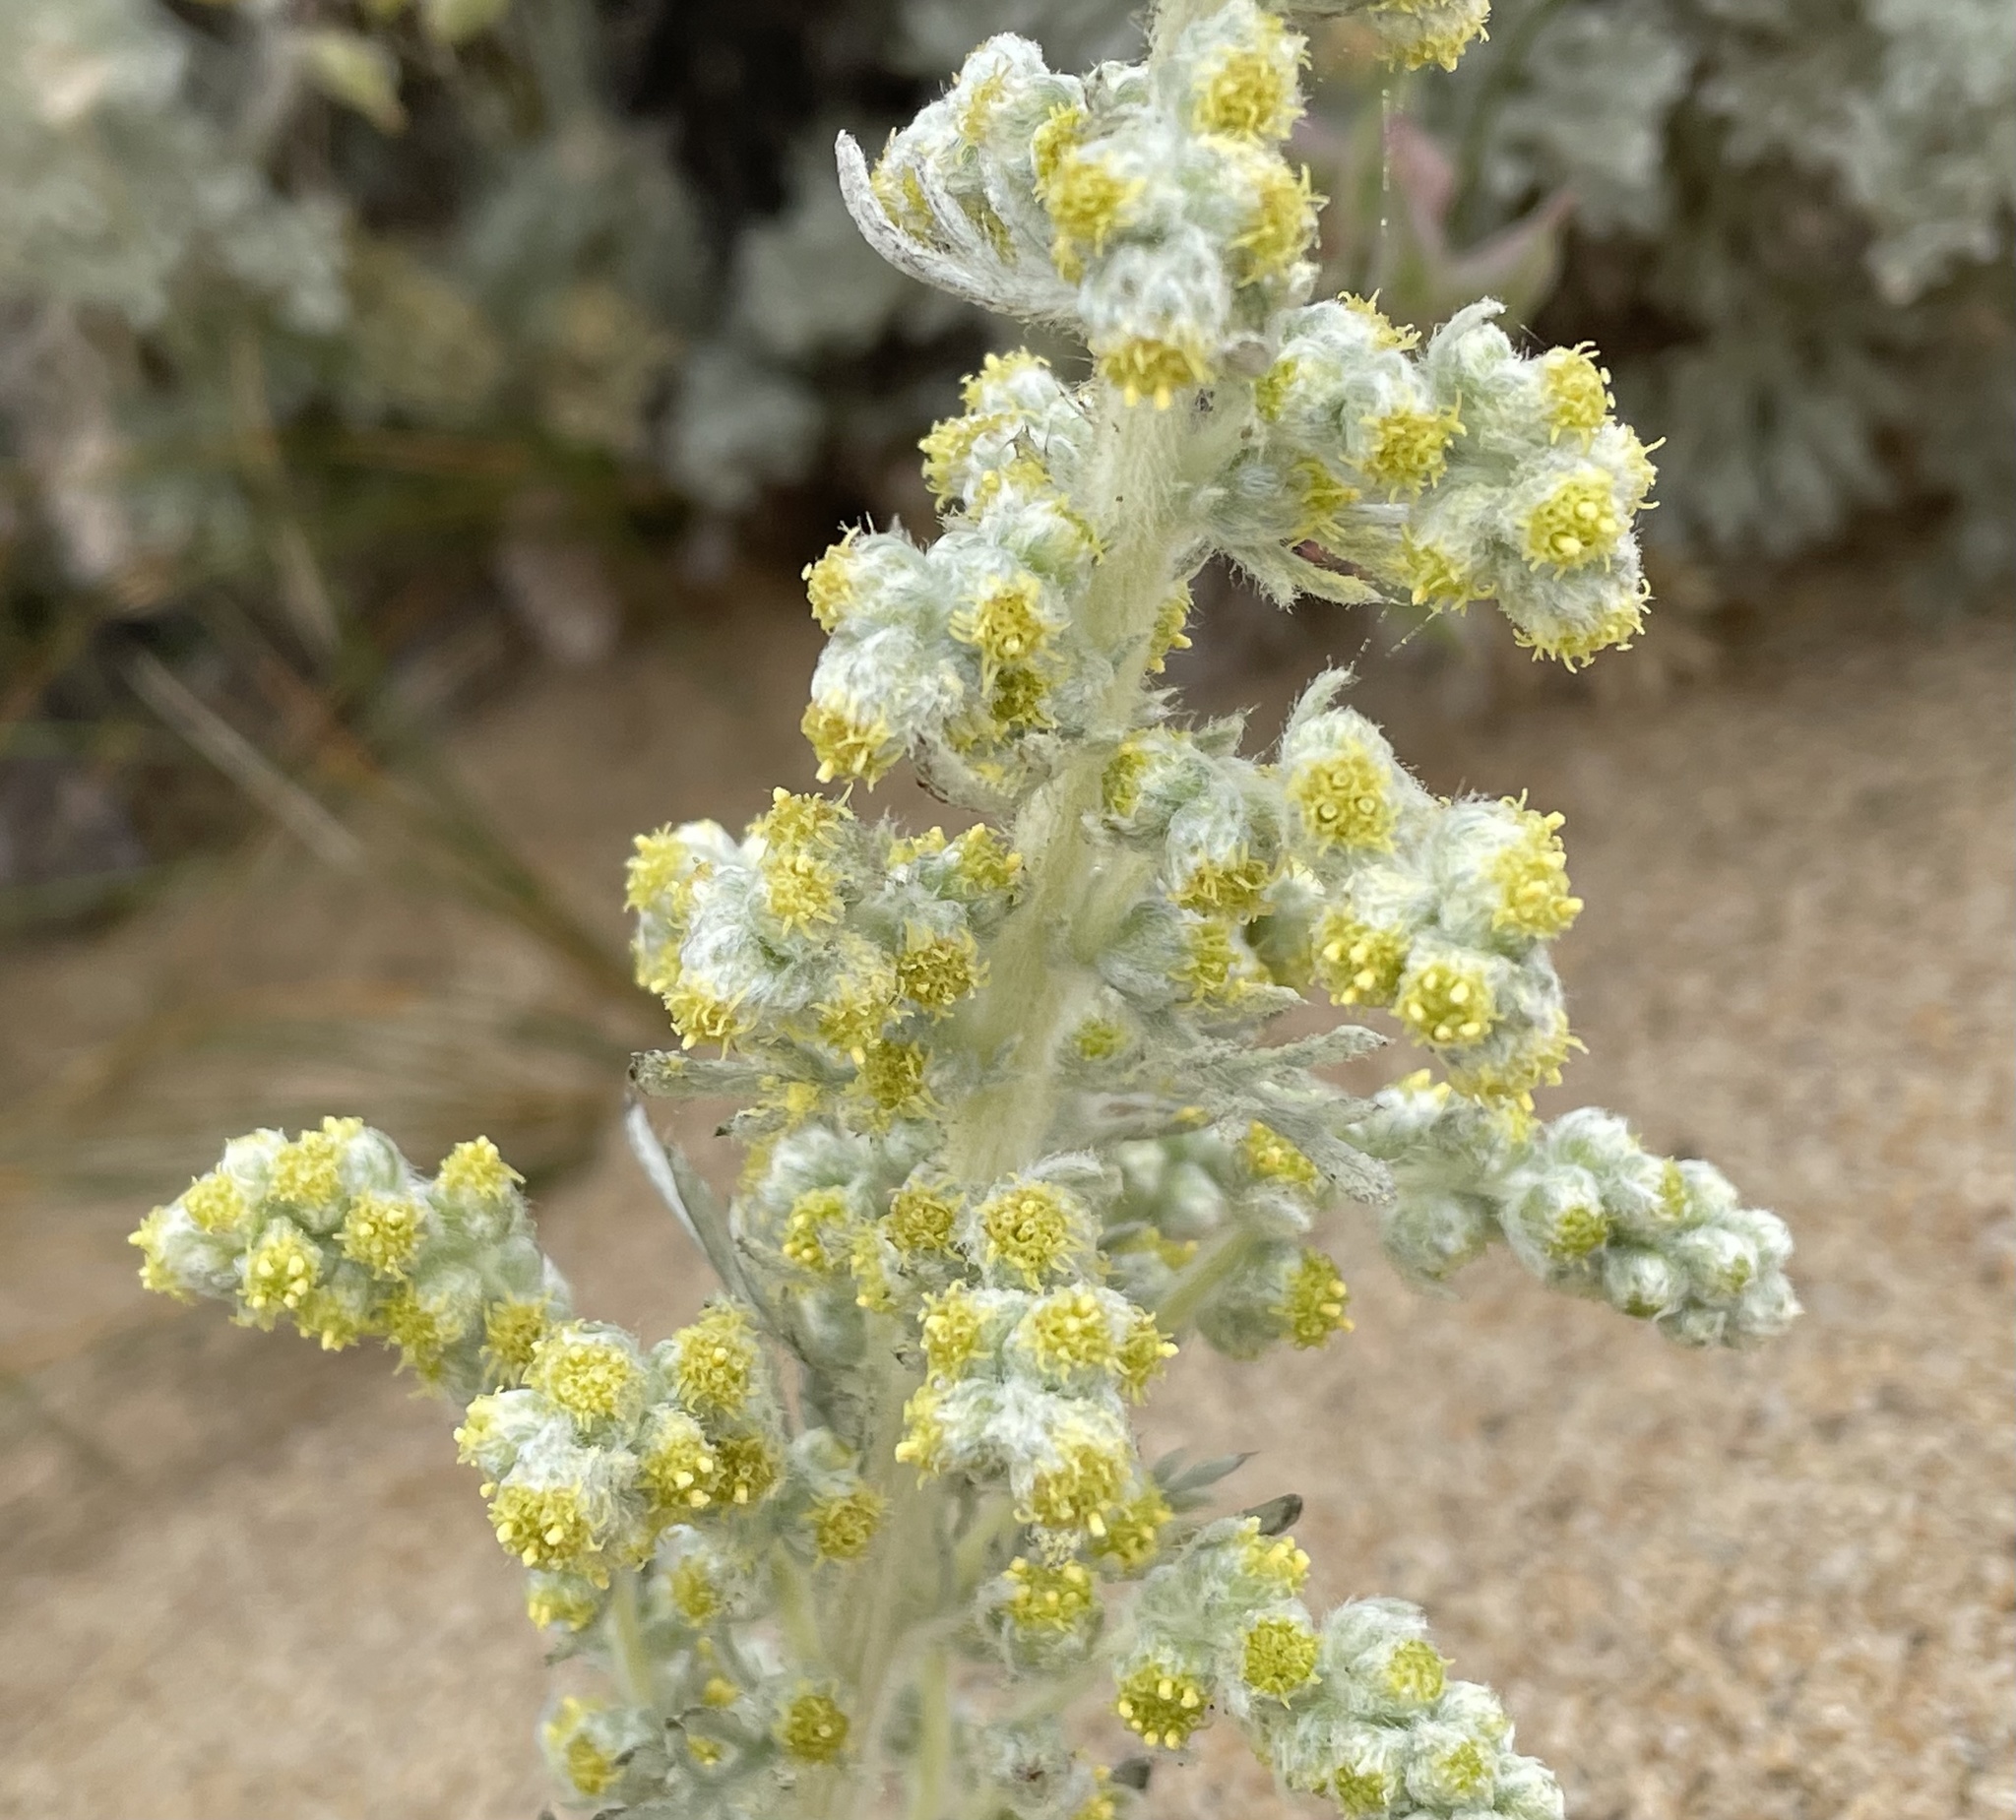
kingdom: Plantae
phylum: Tracheophyta
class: Magnoliopsida
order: Asterales
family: Asteraceae
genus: Artemisia
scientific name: Artemisia pycnocephala
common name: Coastal sagewort
